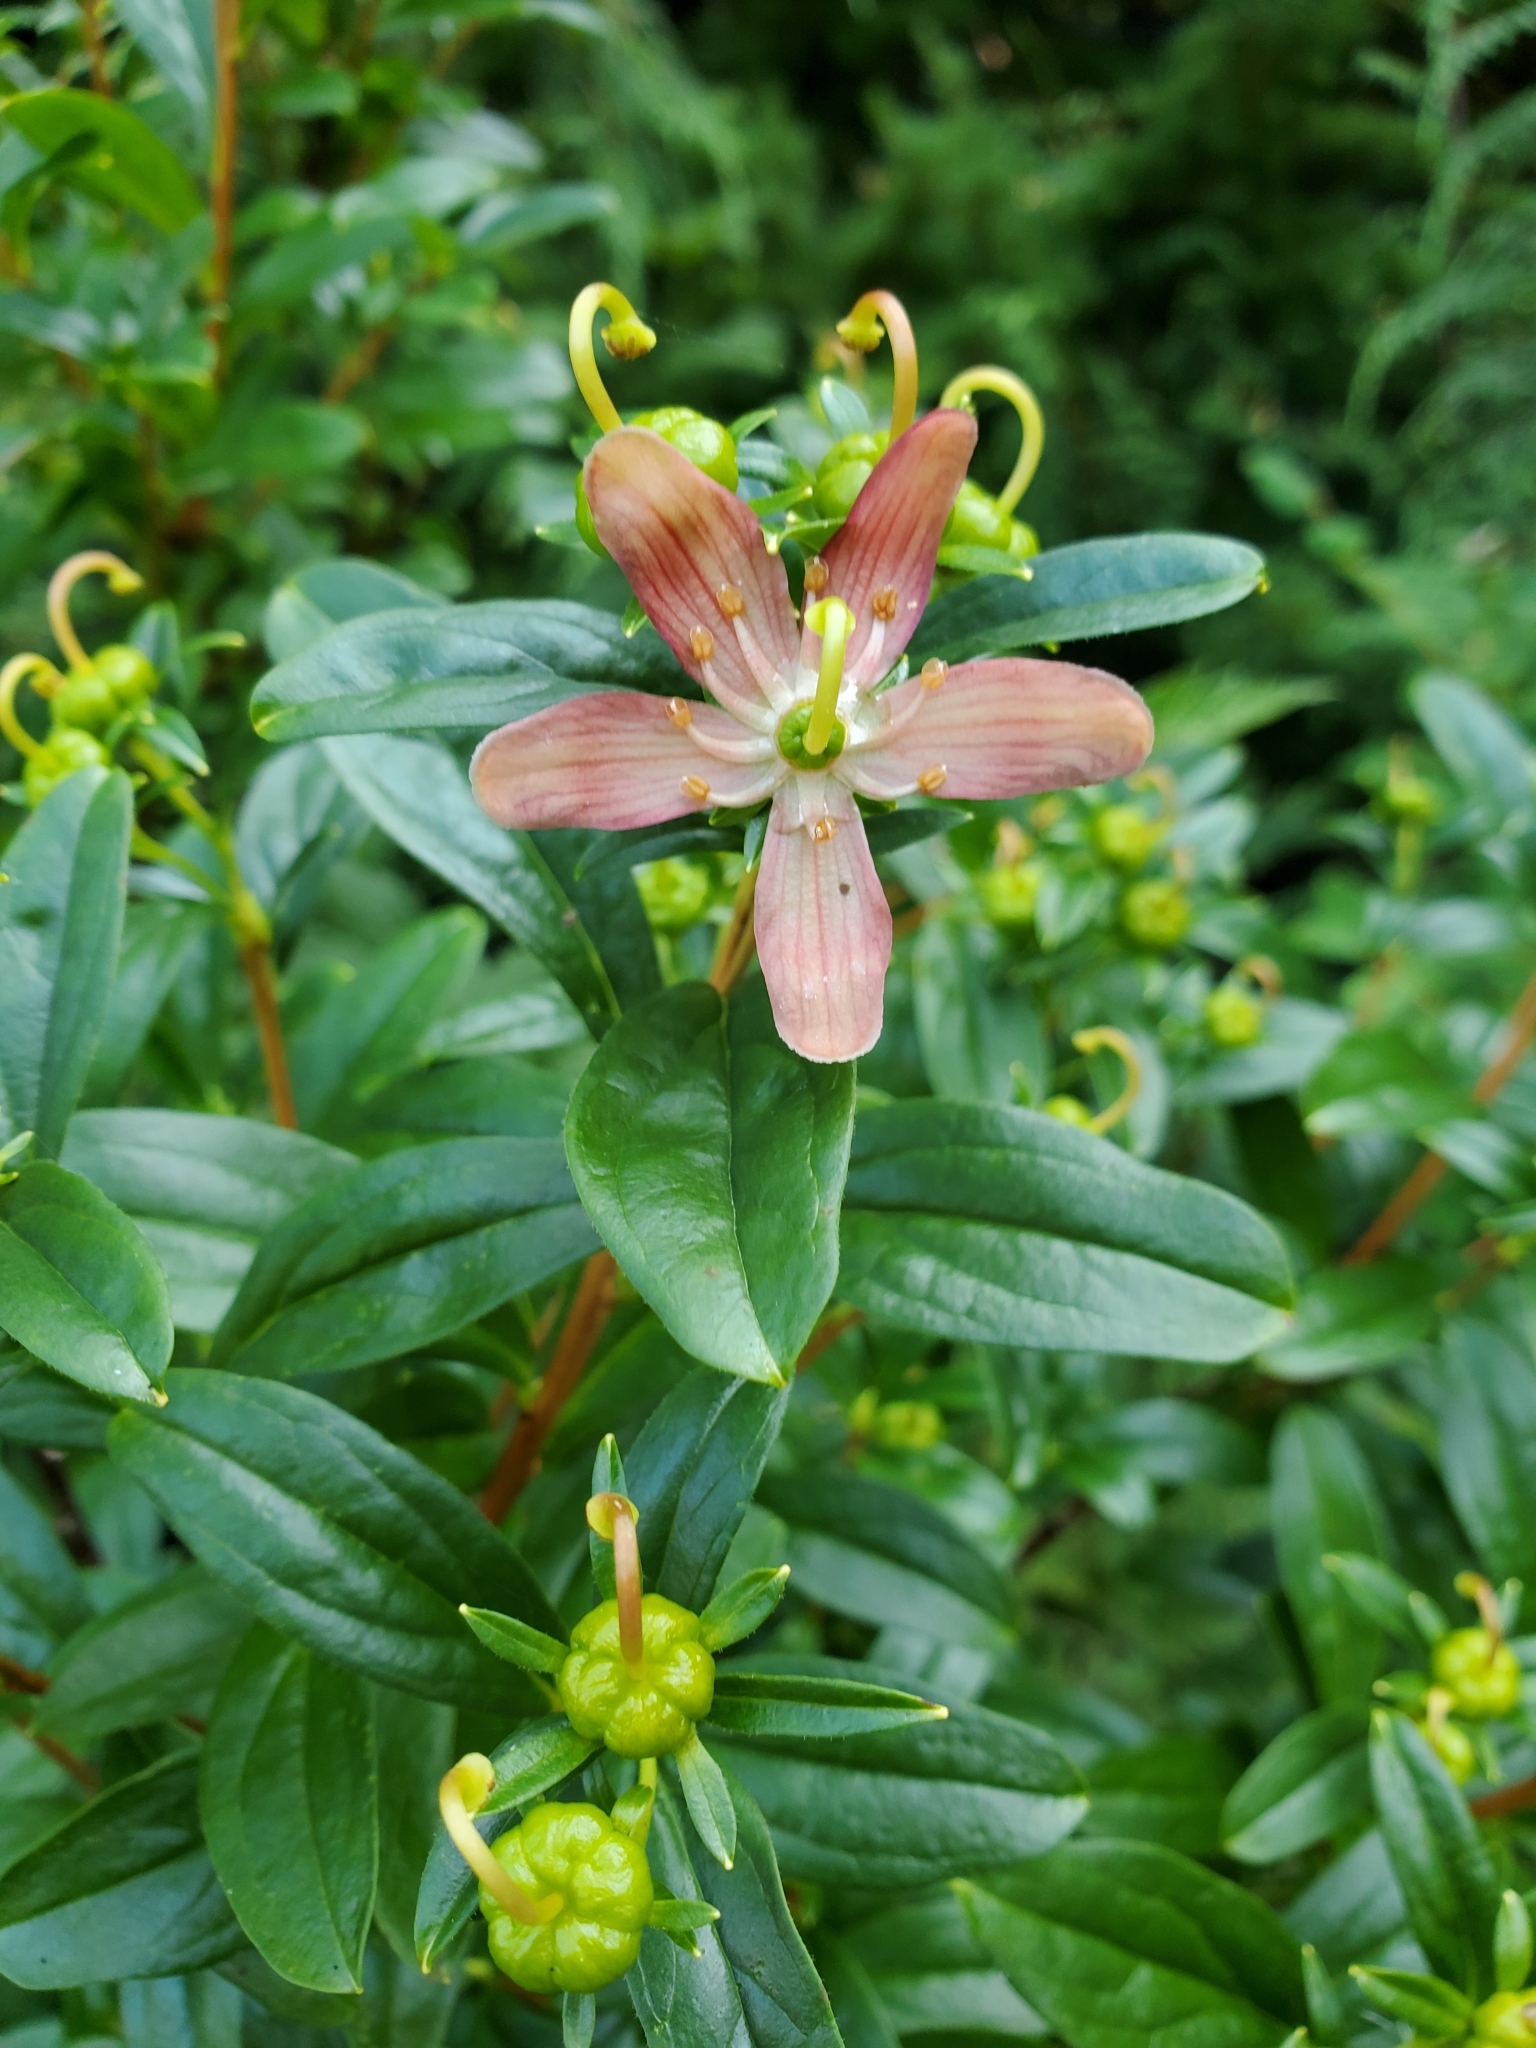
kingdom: Plantae
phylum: Tracheophyta
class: Magnoliopsida
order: Ericales
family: Ericaceae
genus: Elliottia
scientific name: Elliottia pyroliflora
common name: Copperbush
